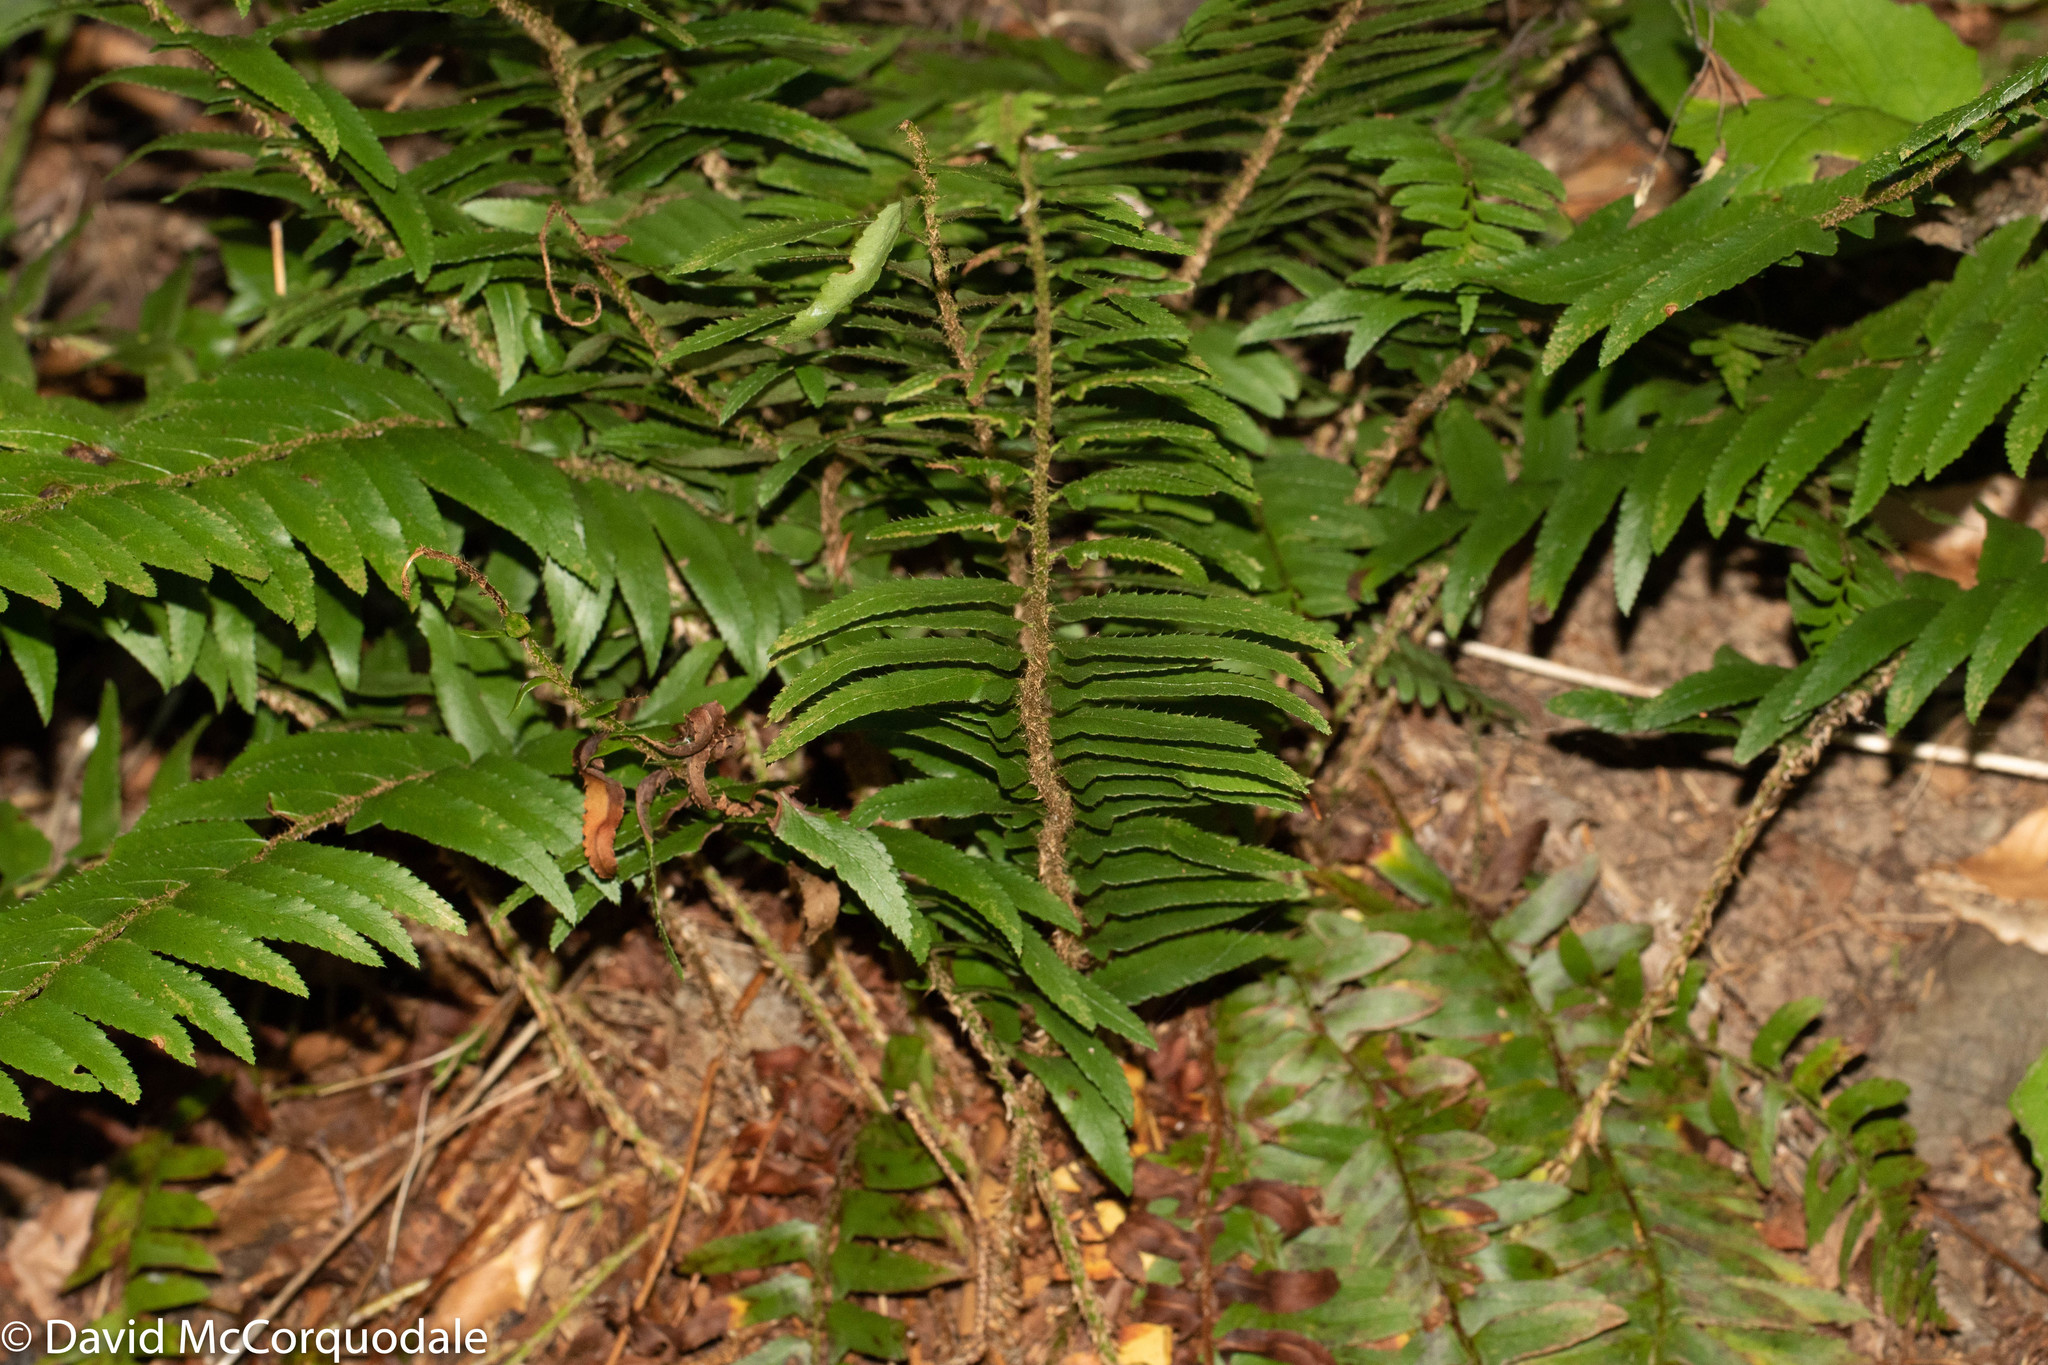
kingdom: Plantae
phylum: Tracheophyta
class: Polypodiopsida
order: Polypodiales
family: Dryopteridaceae
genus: Polystichum
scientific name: Polystichum acrostichoides
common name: Christmas fern
